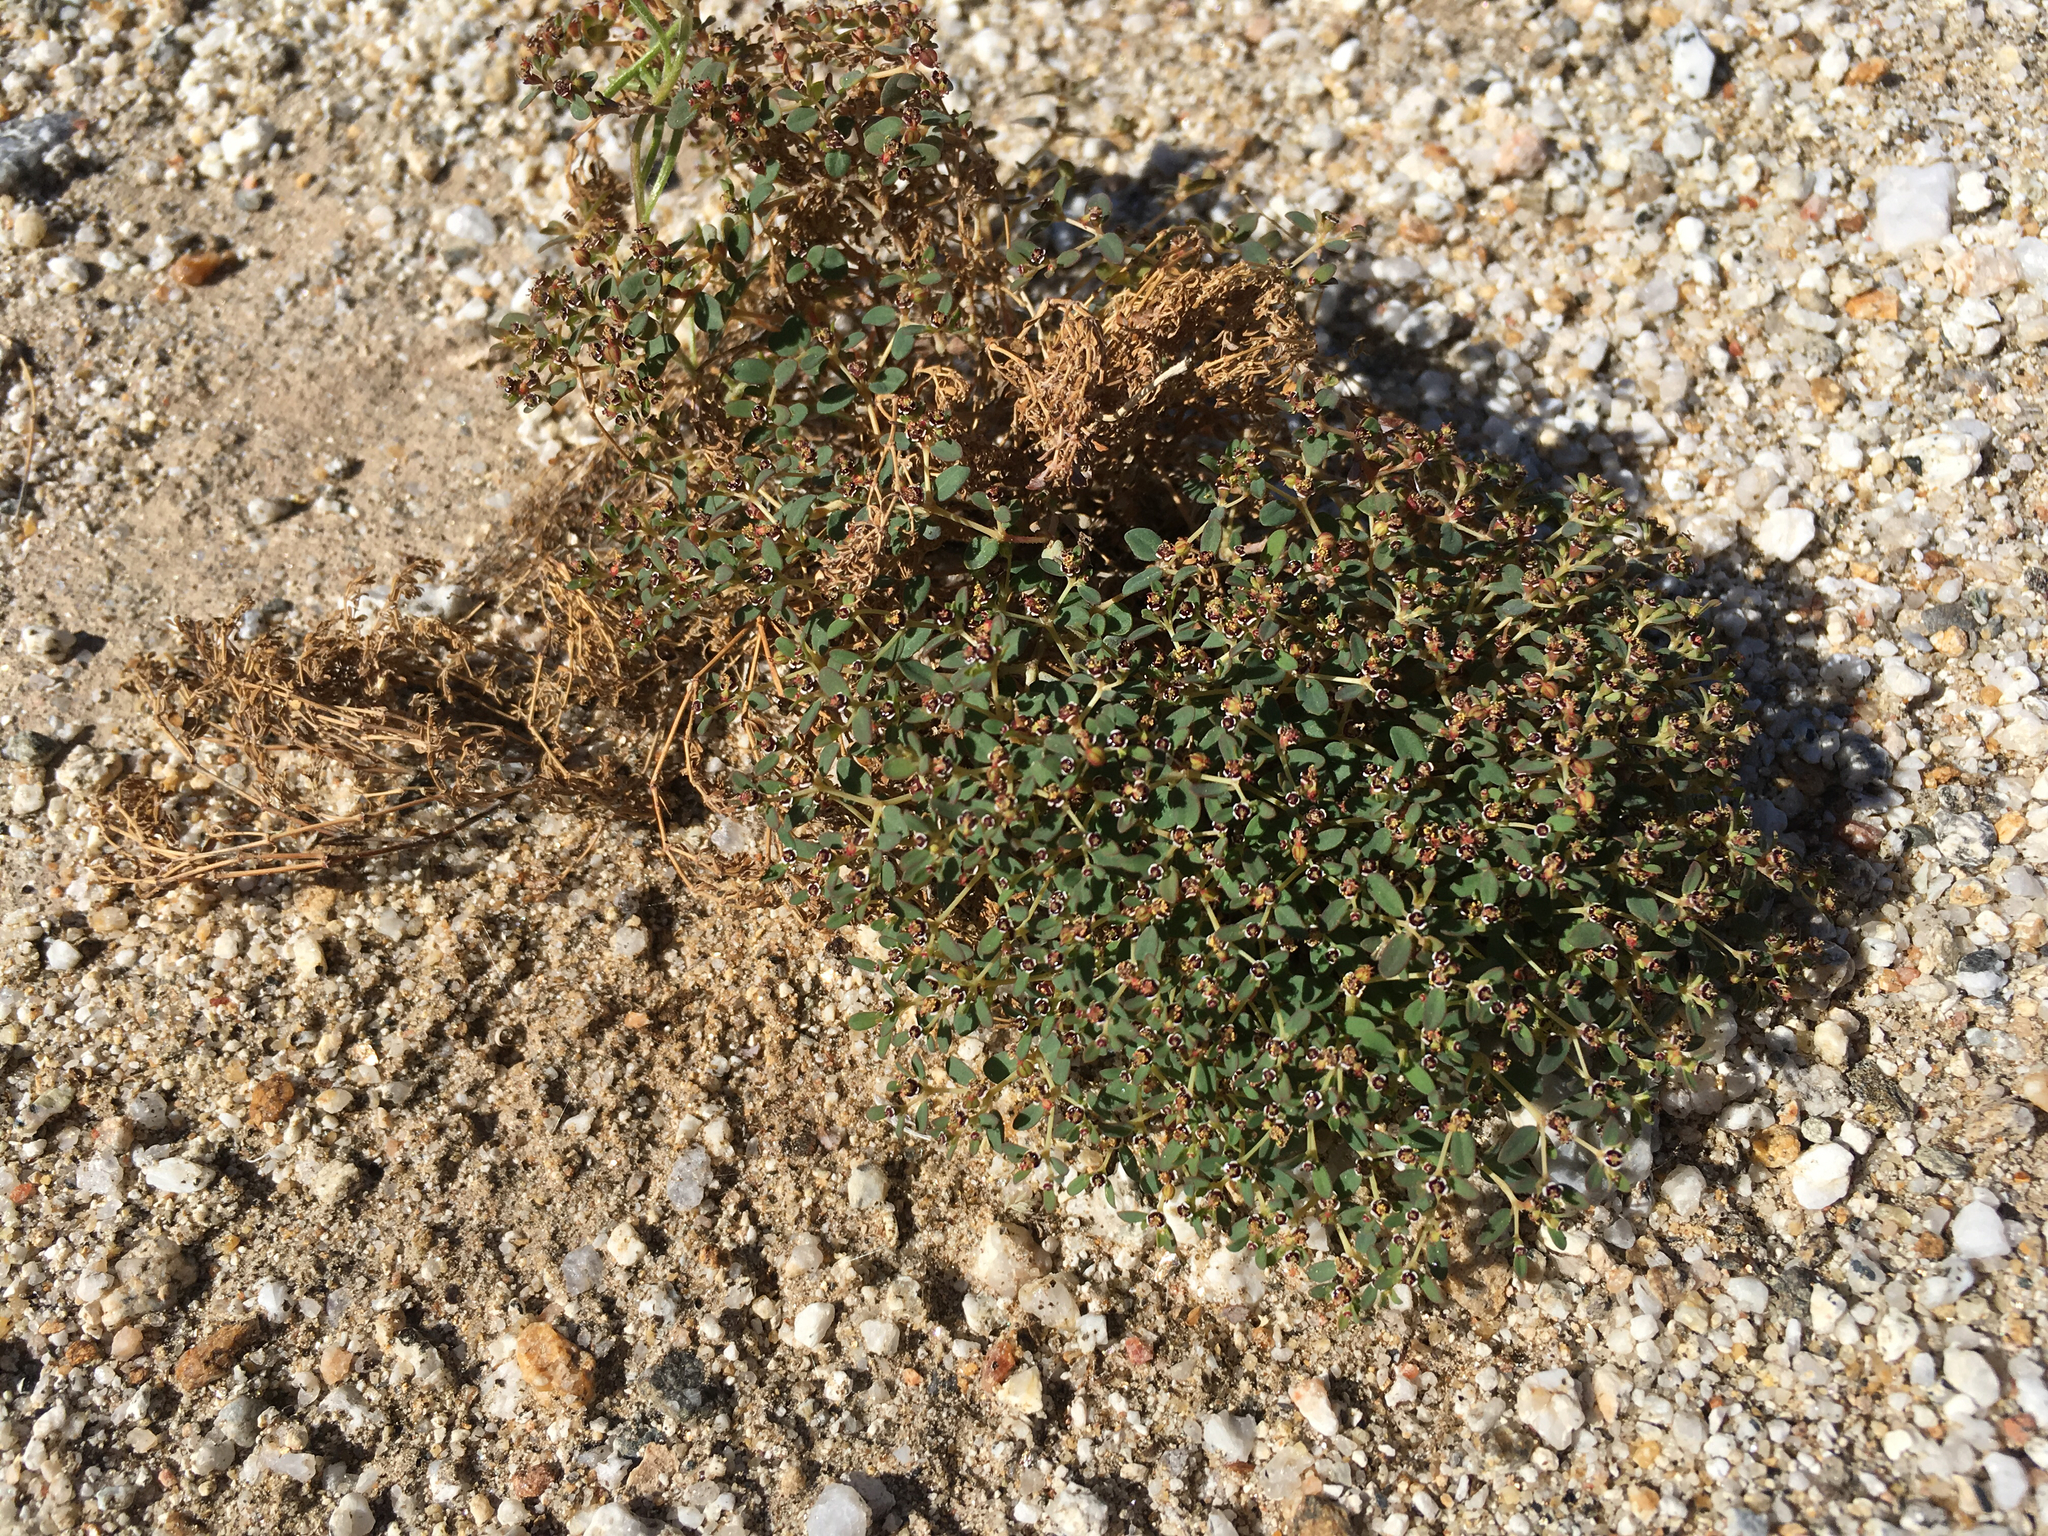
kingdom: Plantae
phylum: Tracheophyta
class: Magnoliopsida
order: Malpighiales
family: Euphorbiaceae
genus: Euphorbia
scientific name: Euphorbia polycarpa
